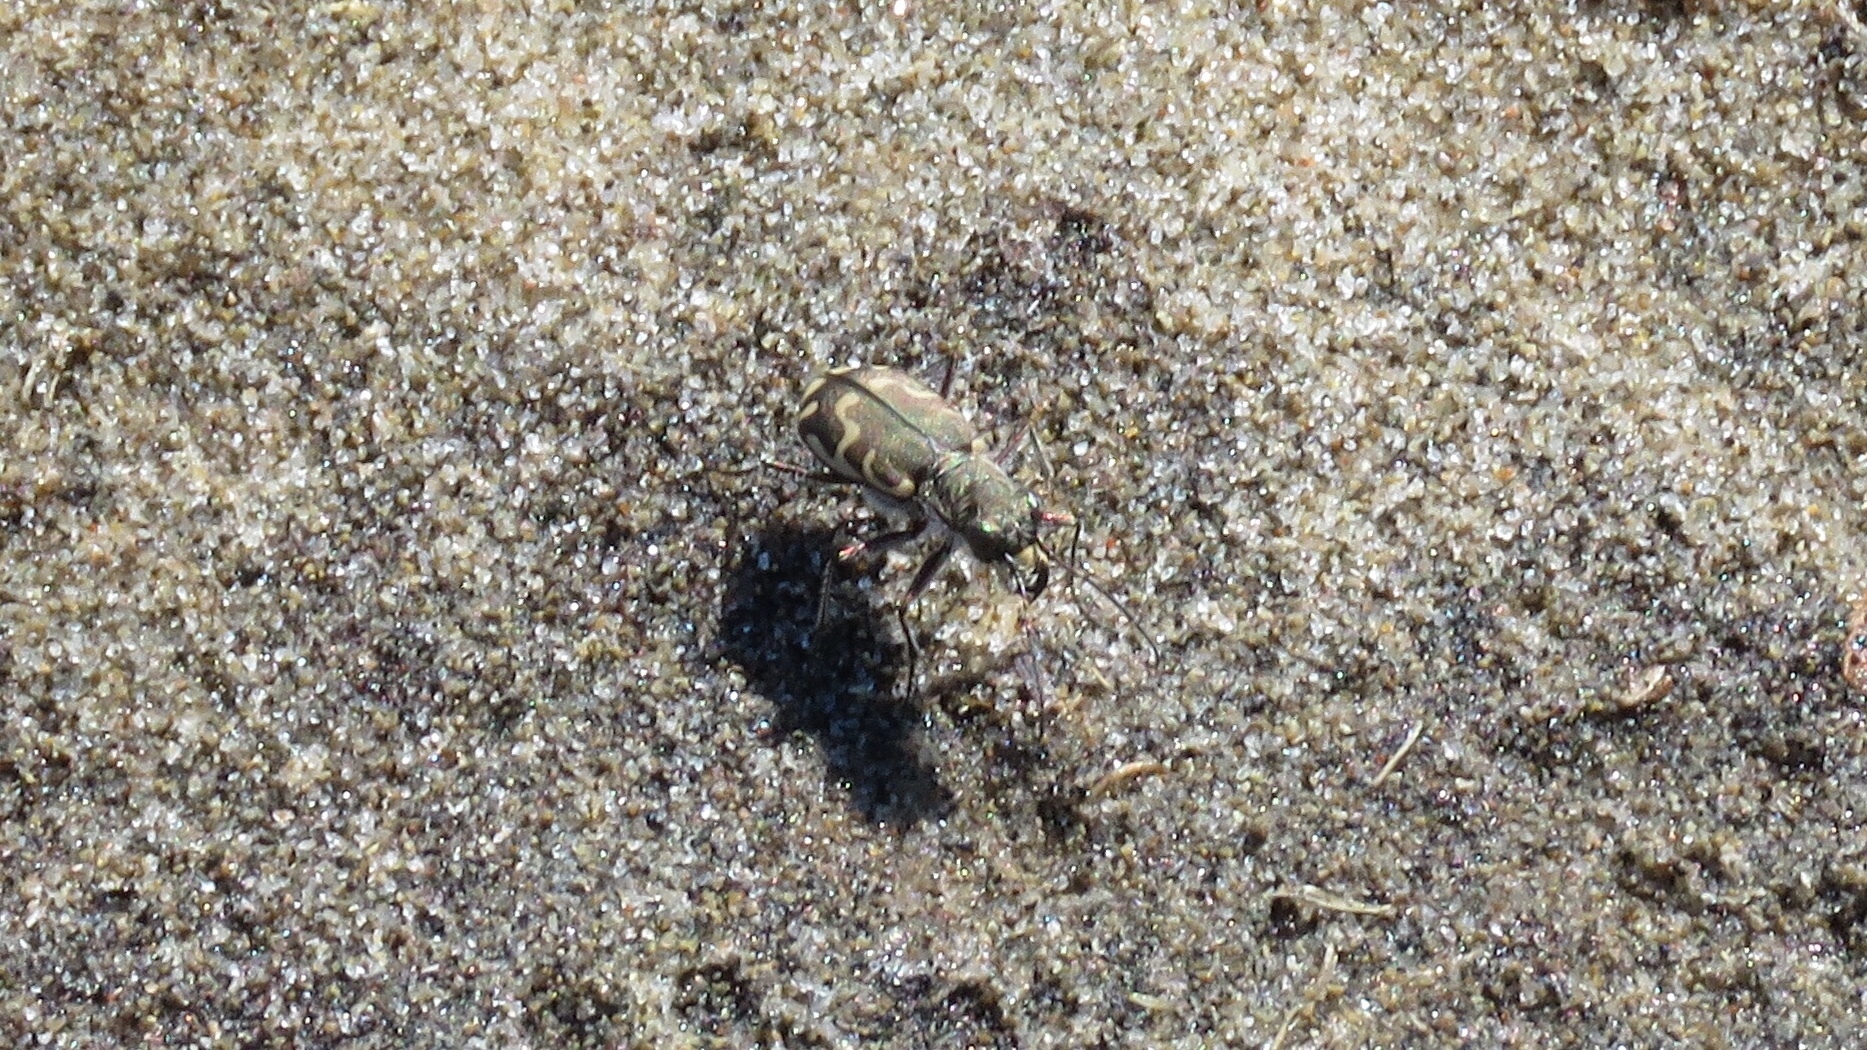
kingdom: Animalia
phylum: Arthropoda
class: Insecta
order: Coleoptera
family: Carabidae
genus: Cicindela
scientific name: Cicindela repanda
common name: Bronzed tiger beetle
